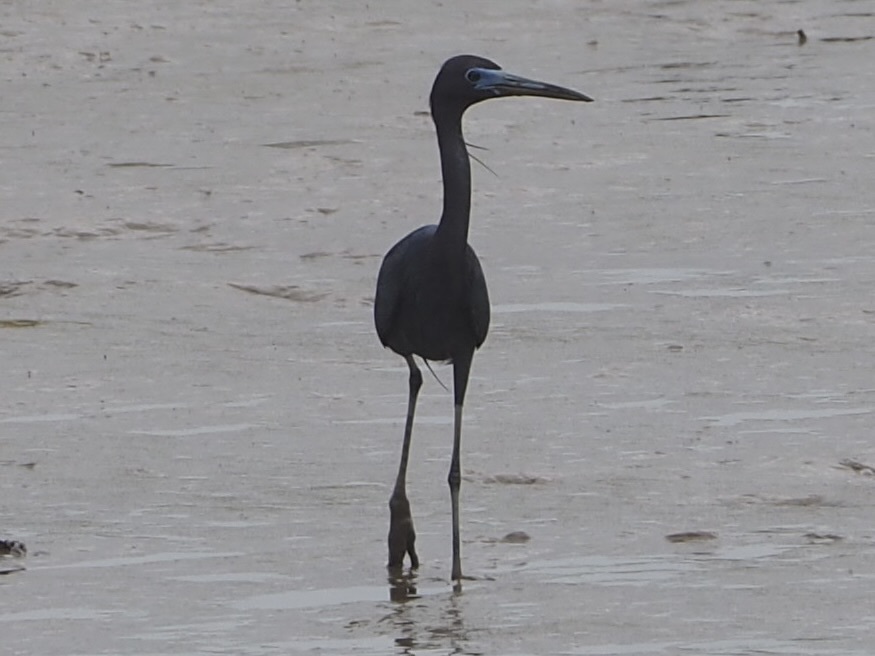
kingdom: Animalia
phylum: Chordata
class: Aves
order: Pelecaniformes
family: Ardeidae
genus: Egretta
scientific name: Egretta caerulea
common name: Little blue heron
